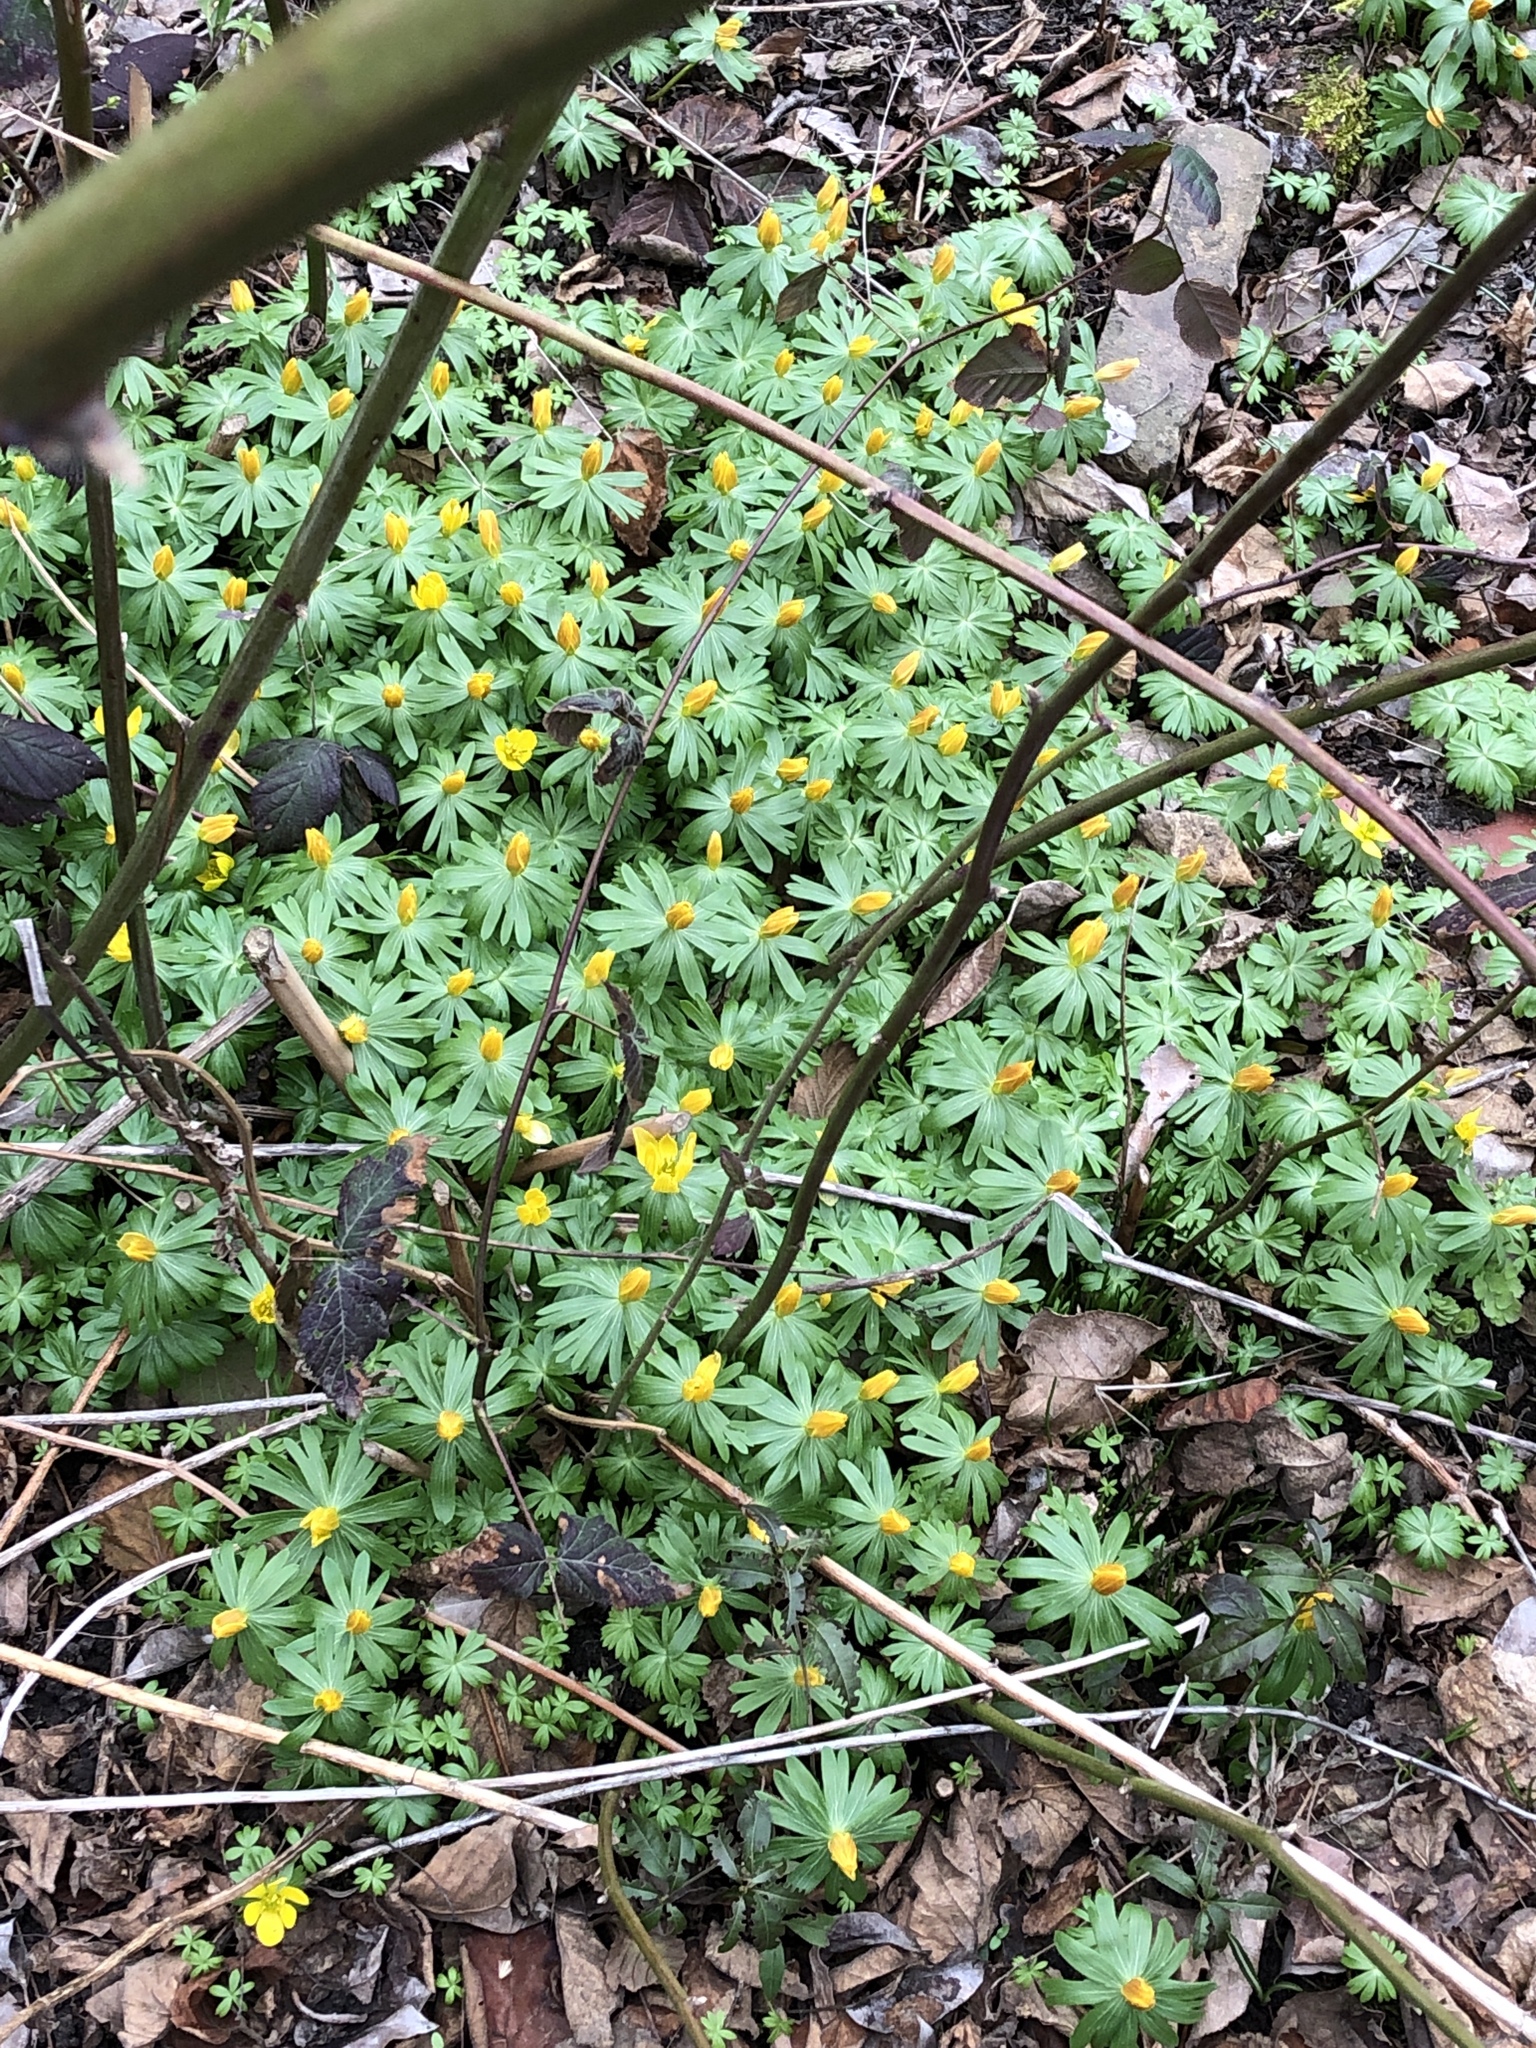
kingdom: Plantae
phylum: Tracheophyta
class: Magnoliopsida
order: Ranunculales
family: Ranunculaceae
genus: Eranthis
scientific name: Eranthis hyemalis
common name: Winter aconite
